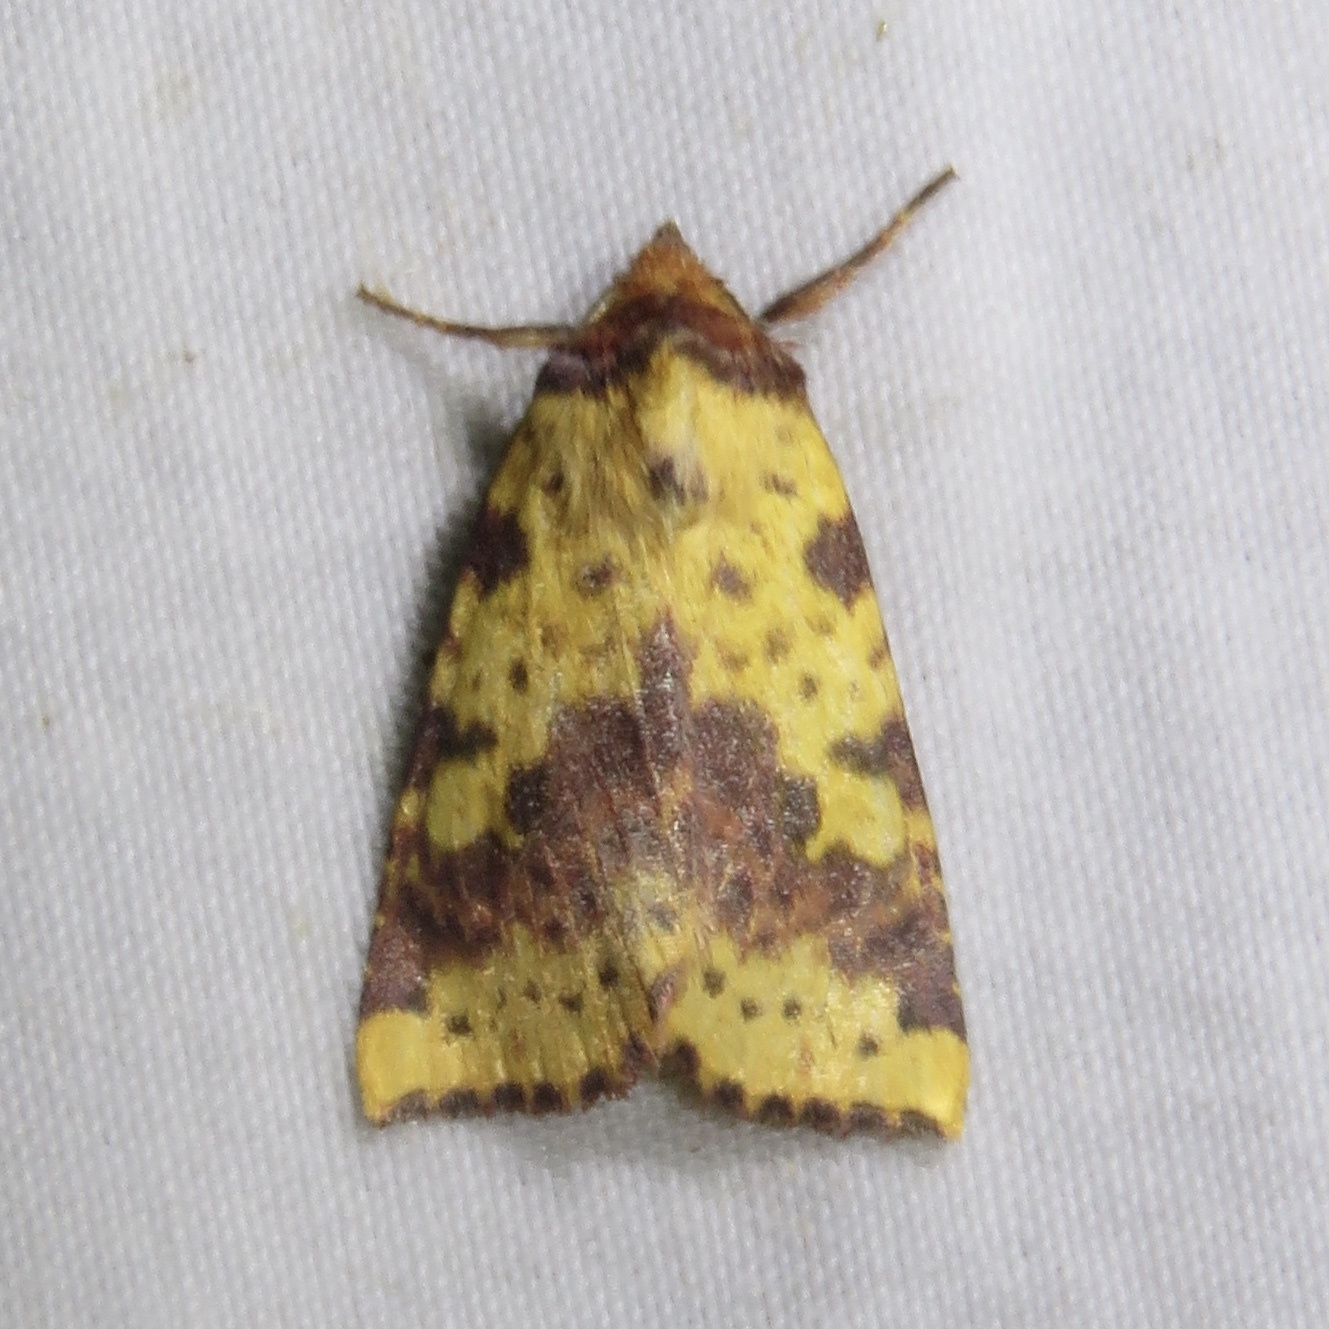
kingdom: Animalia
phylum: Arthropoda
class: Insecta
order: Lepidoptera
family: Noctuidae
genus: Xanthia
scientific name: Xanthia tatago
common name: Pink-banded sallow
